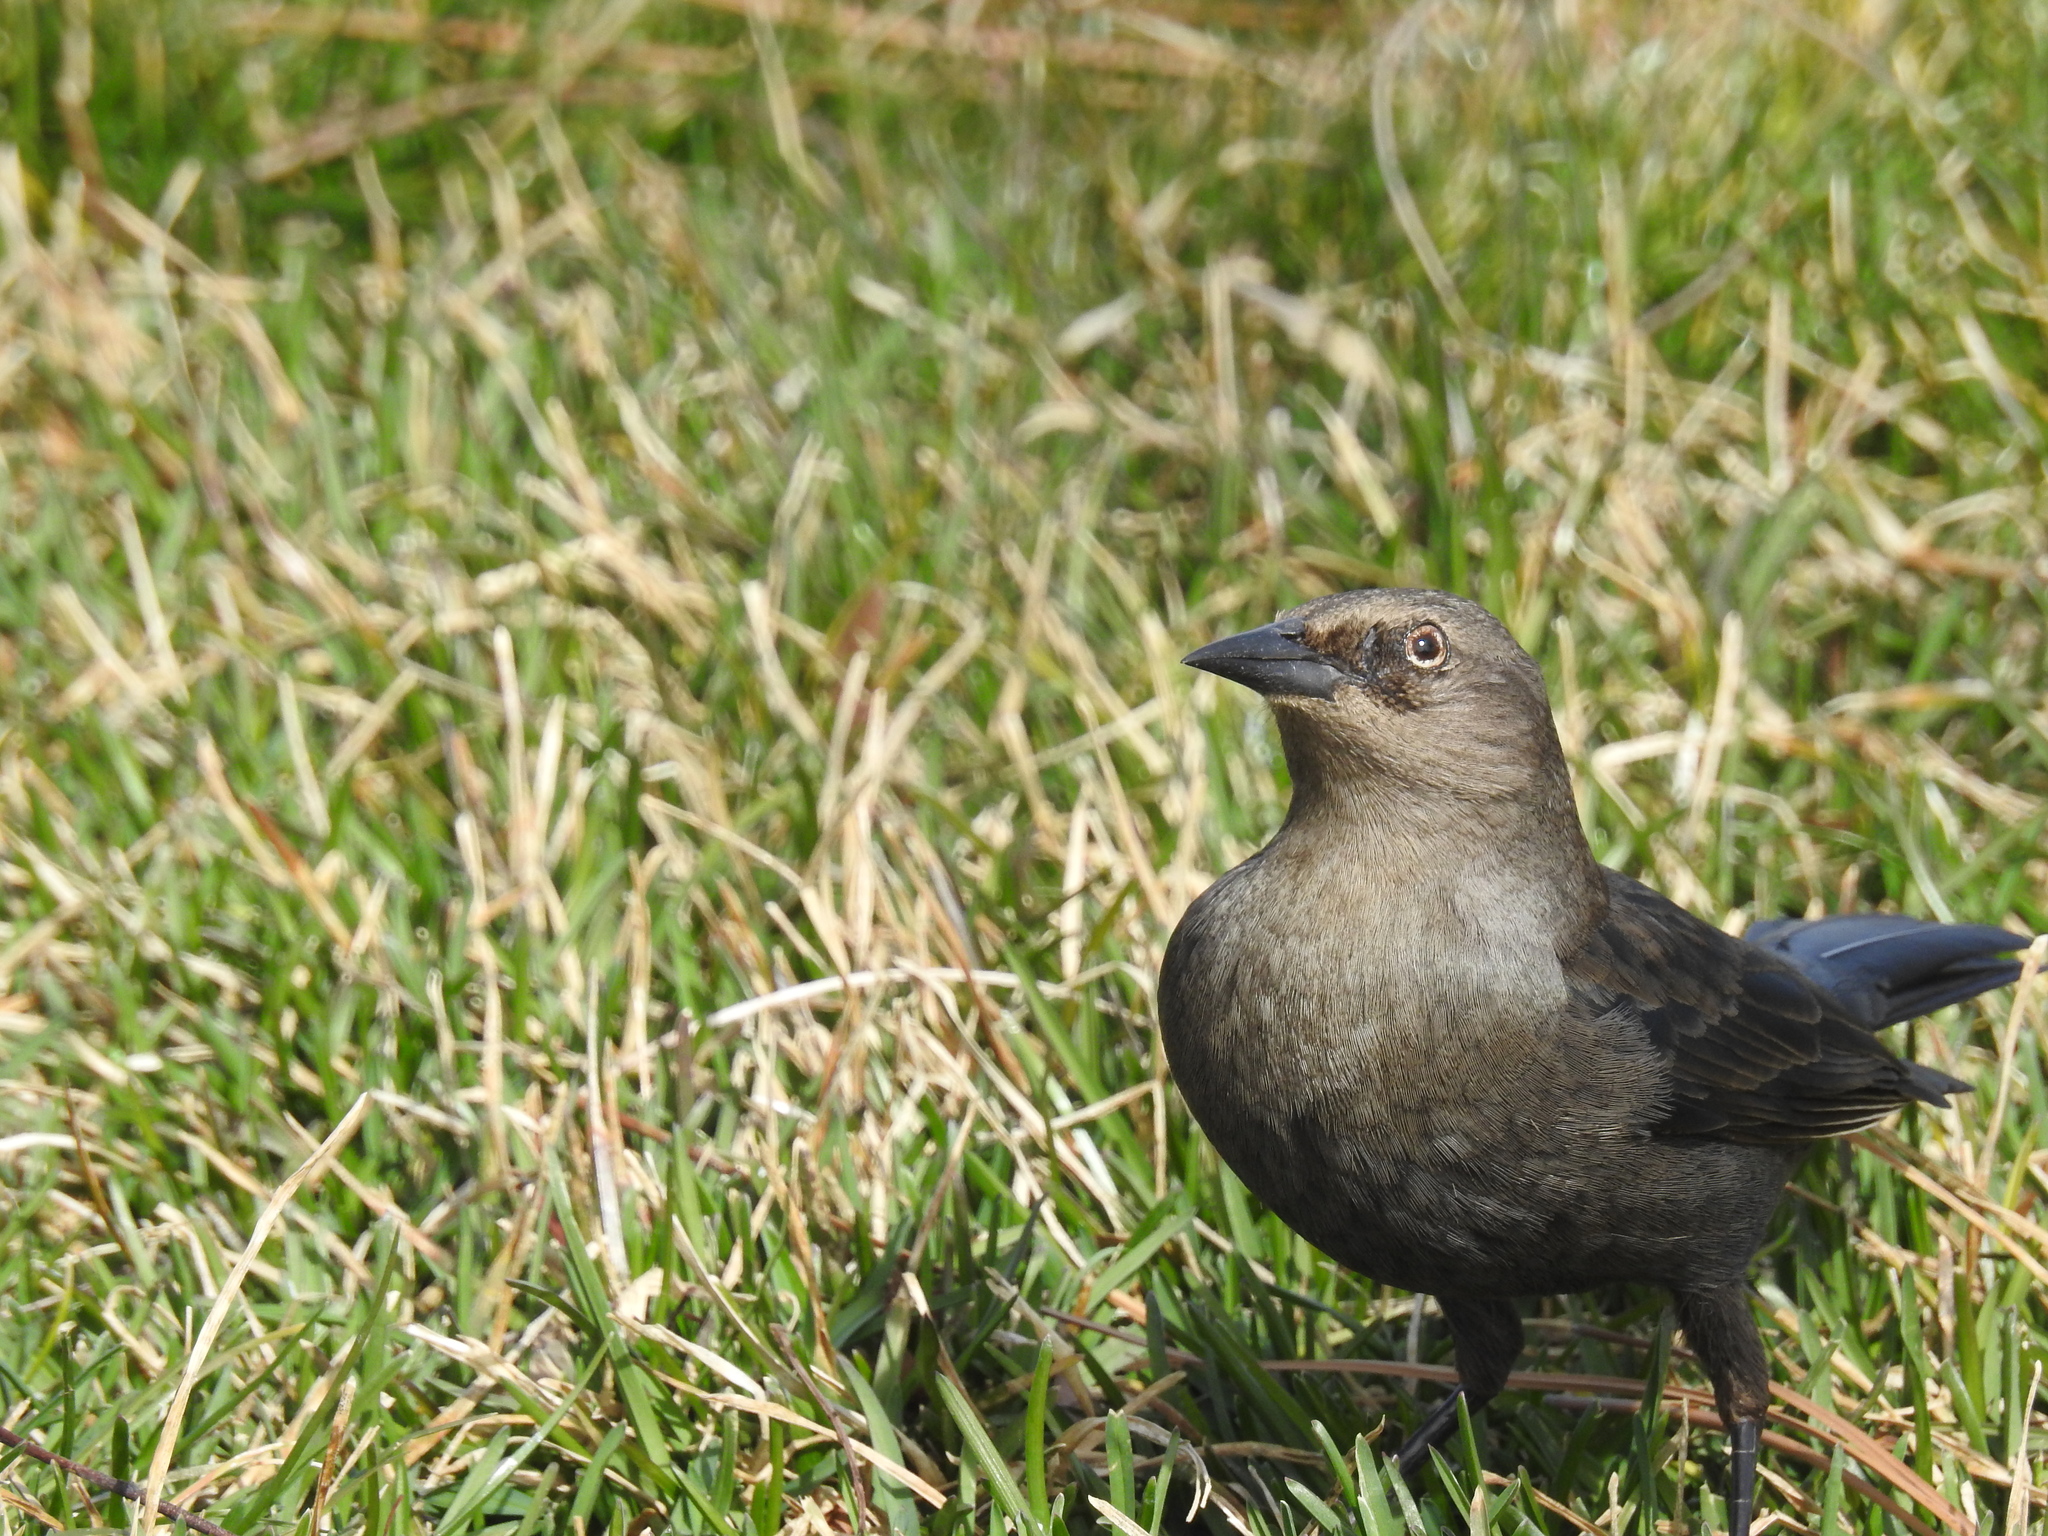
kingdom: Animalia
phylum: Chordata
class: Aves
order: Passeriformes
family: Icteridae
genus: Euphagus
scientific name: Euphagus cyanocephalus
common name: Brewer's blackbird
